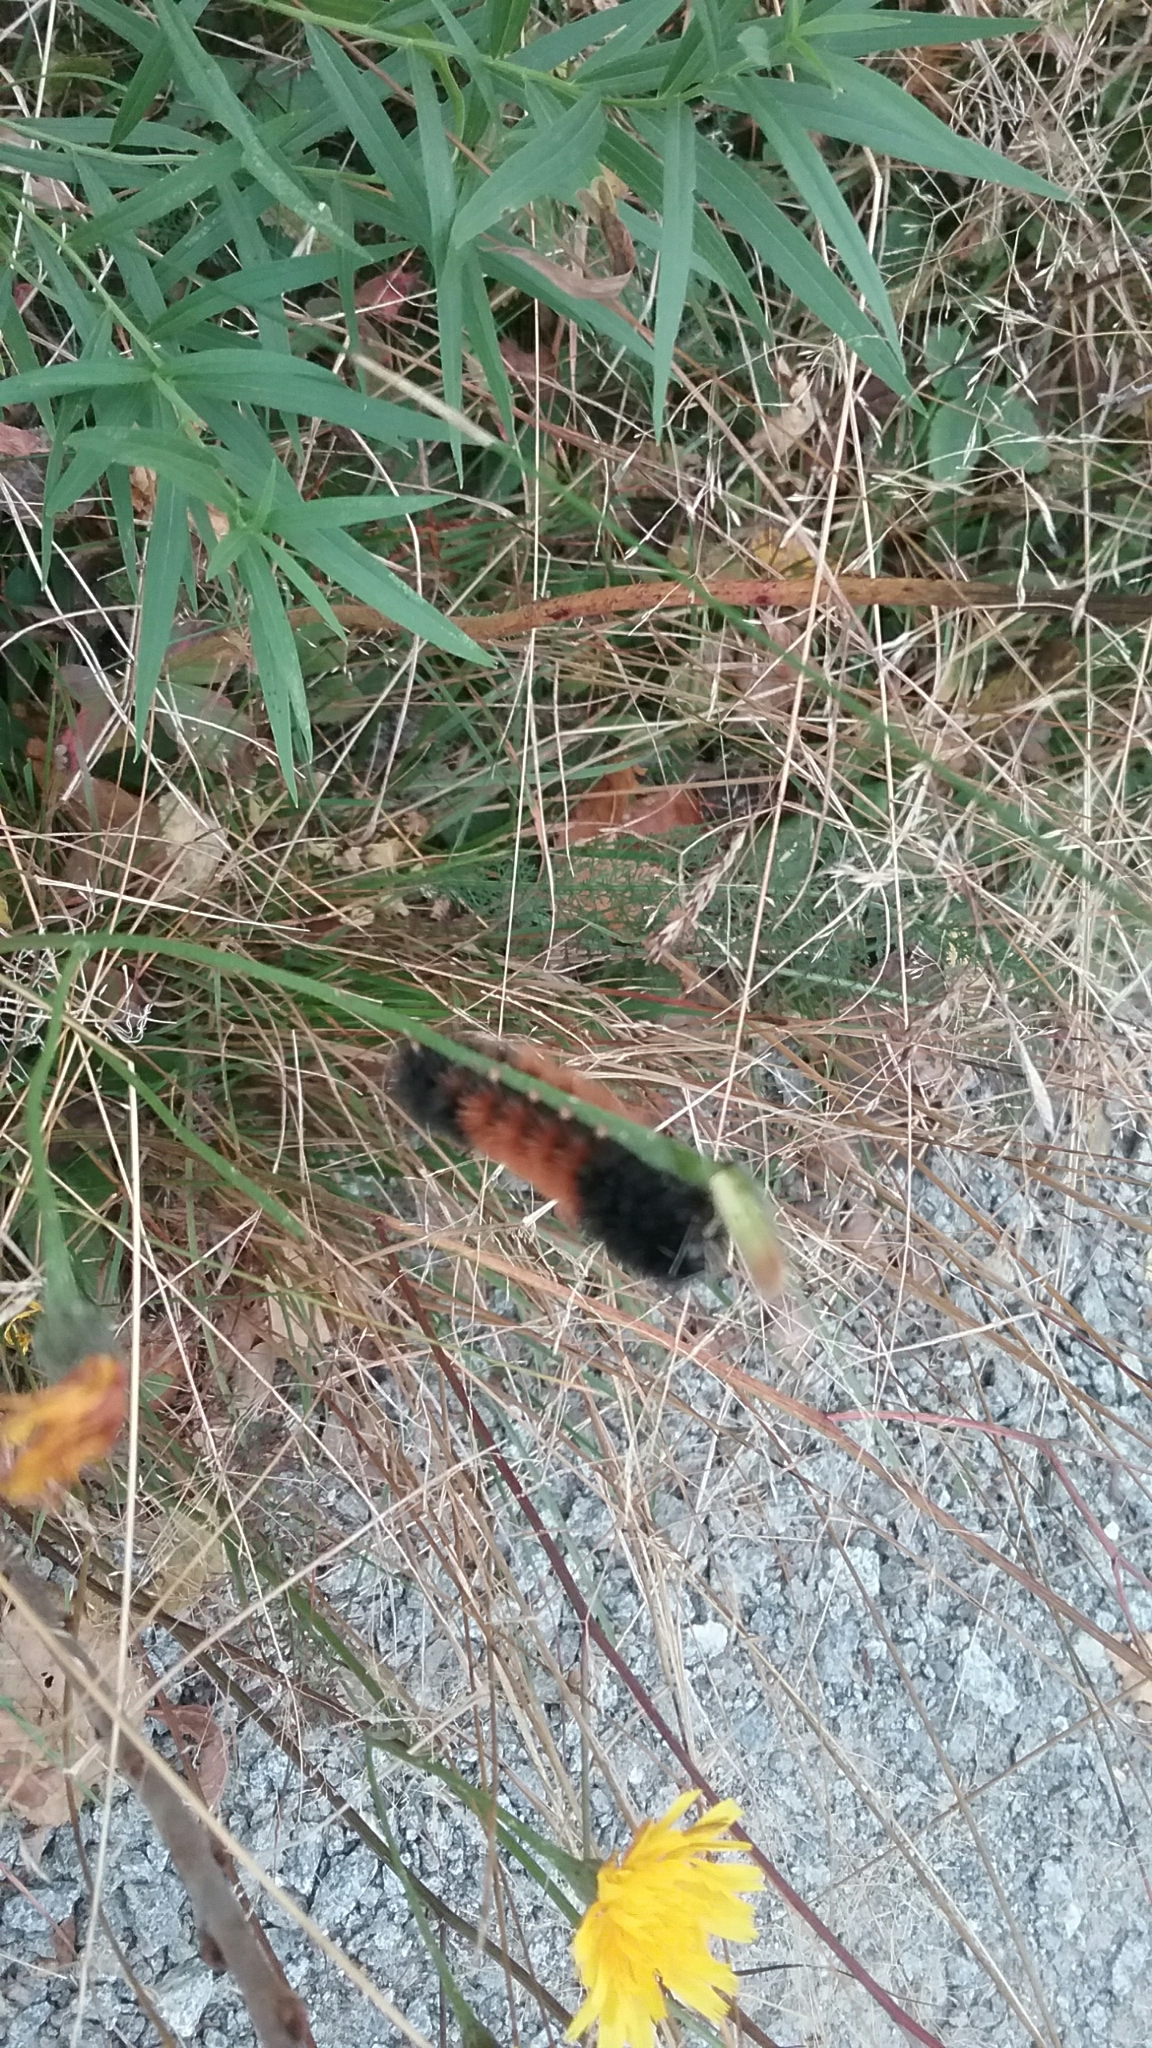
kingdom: Animalia
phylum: Arthropoda
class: Insecta
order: Lepidoptera
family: Erebidae
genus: Pyrrharctia
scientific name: Pyrrharctia isabella
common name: Isabella tiger moth
